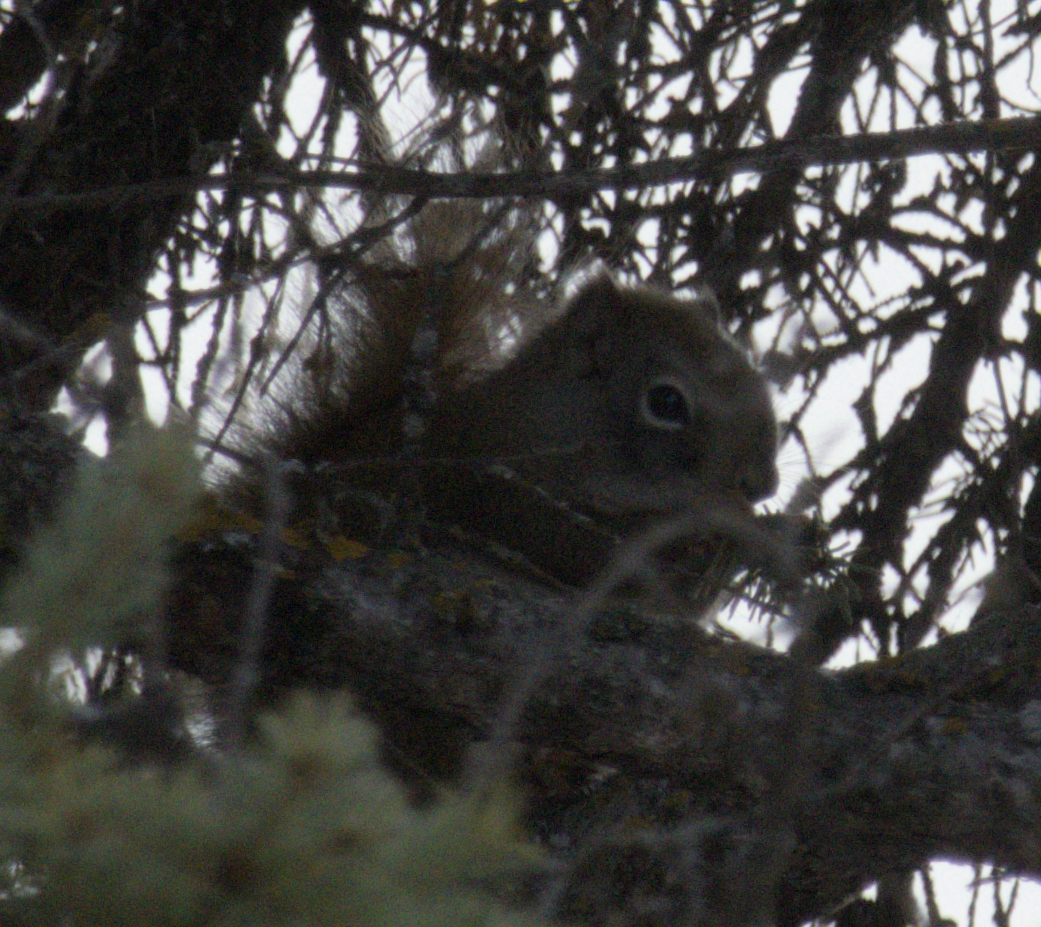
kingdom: Animalia
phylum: Chordata
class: Mammalia
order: Rodentia
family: Sciuridae
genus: Tamiasciurus
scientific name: Tamiasciurus hudsonicus
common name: Red squirrel
